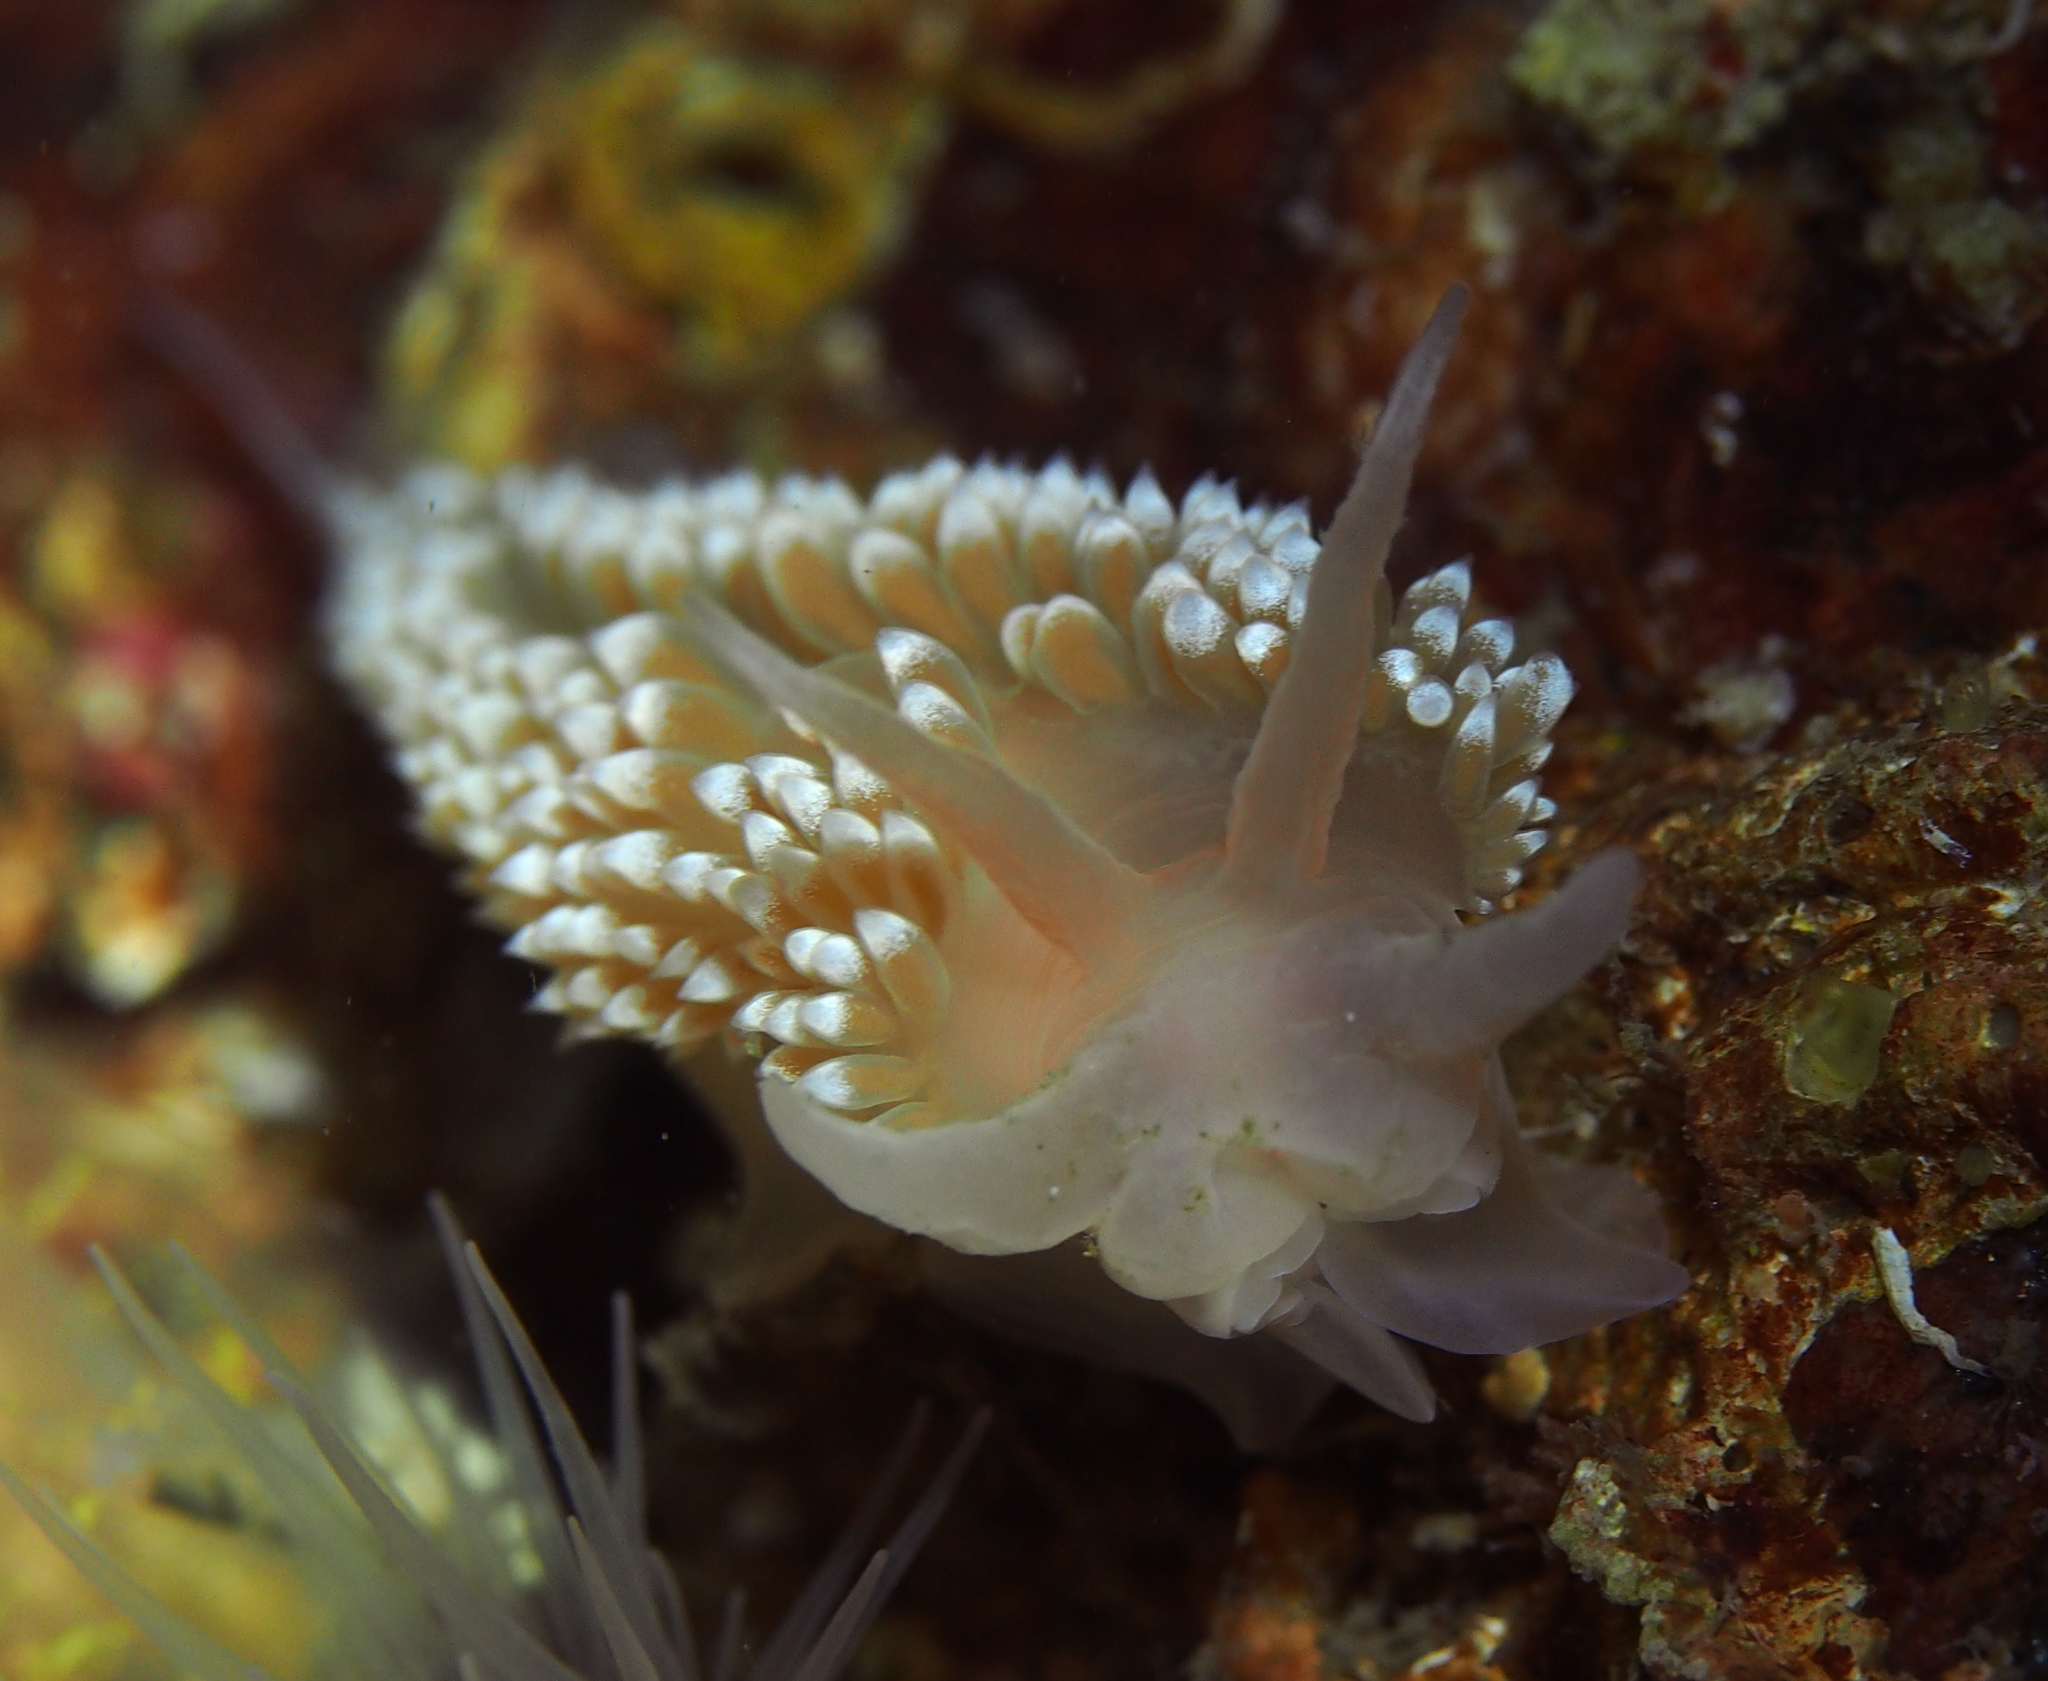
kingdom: Animalia
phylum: Mollusca
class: Gastropoda
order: Nudibranchia
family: Coryphellidae
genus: Coryphella
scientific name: Coryphella verrucosa
